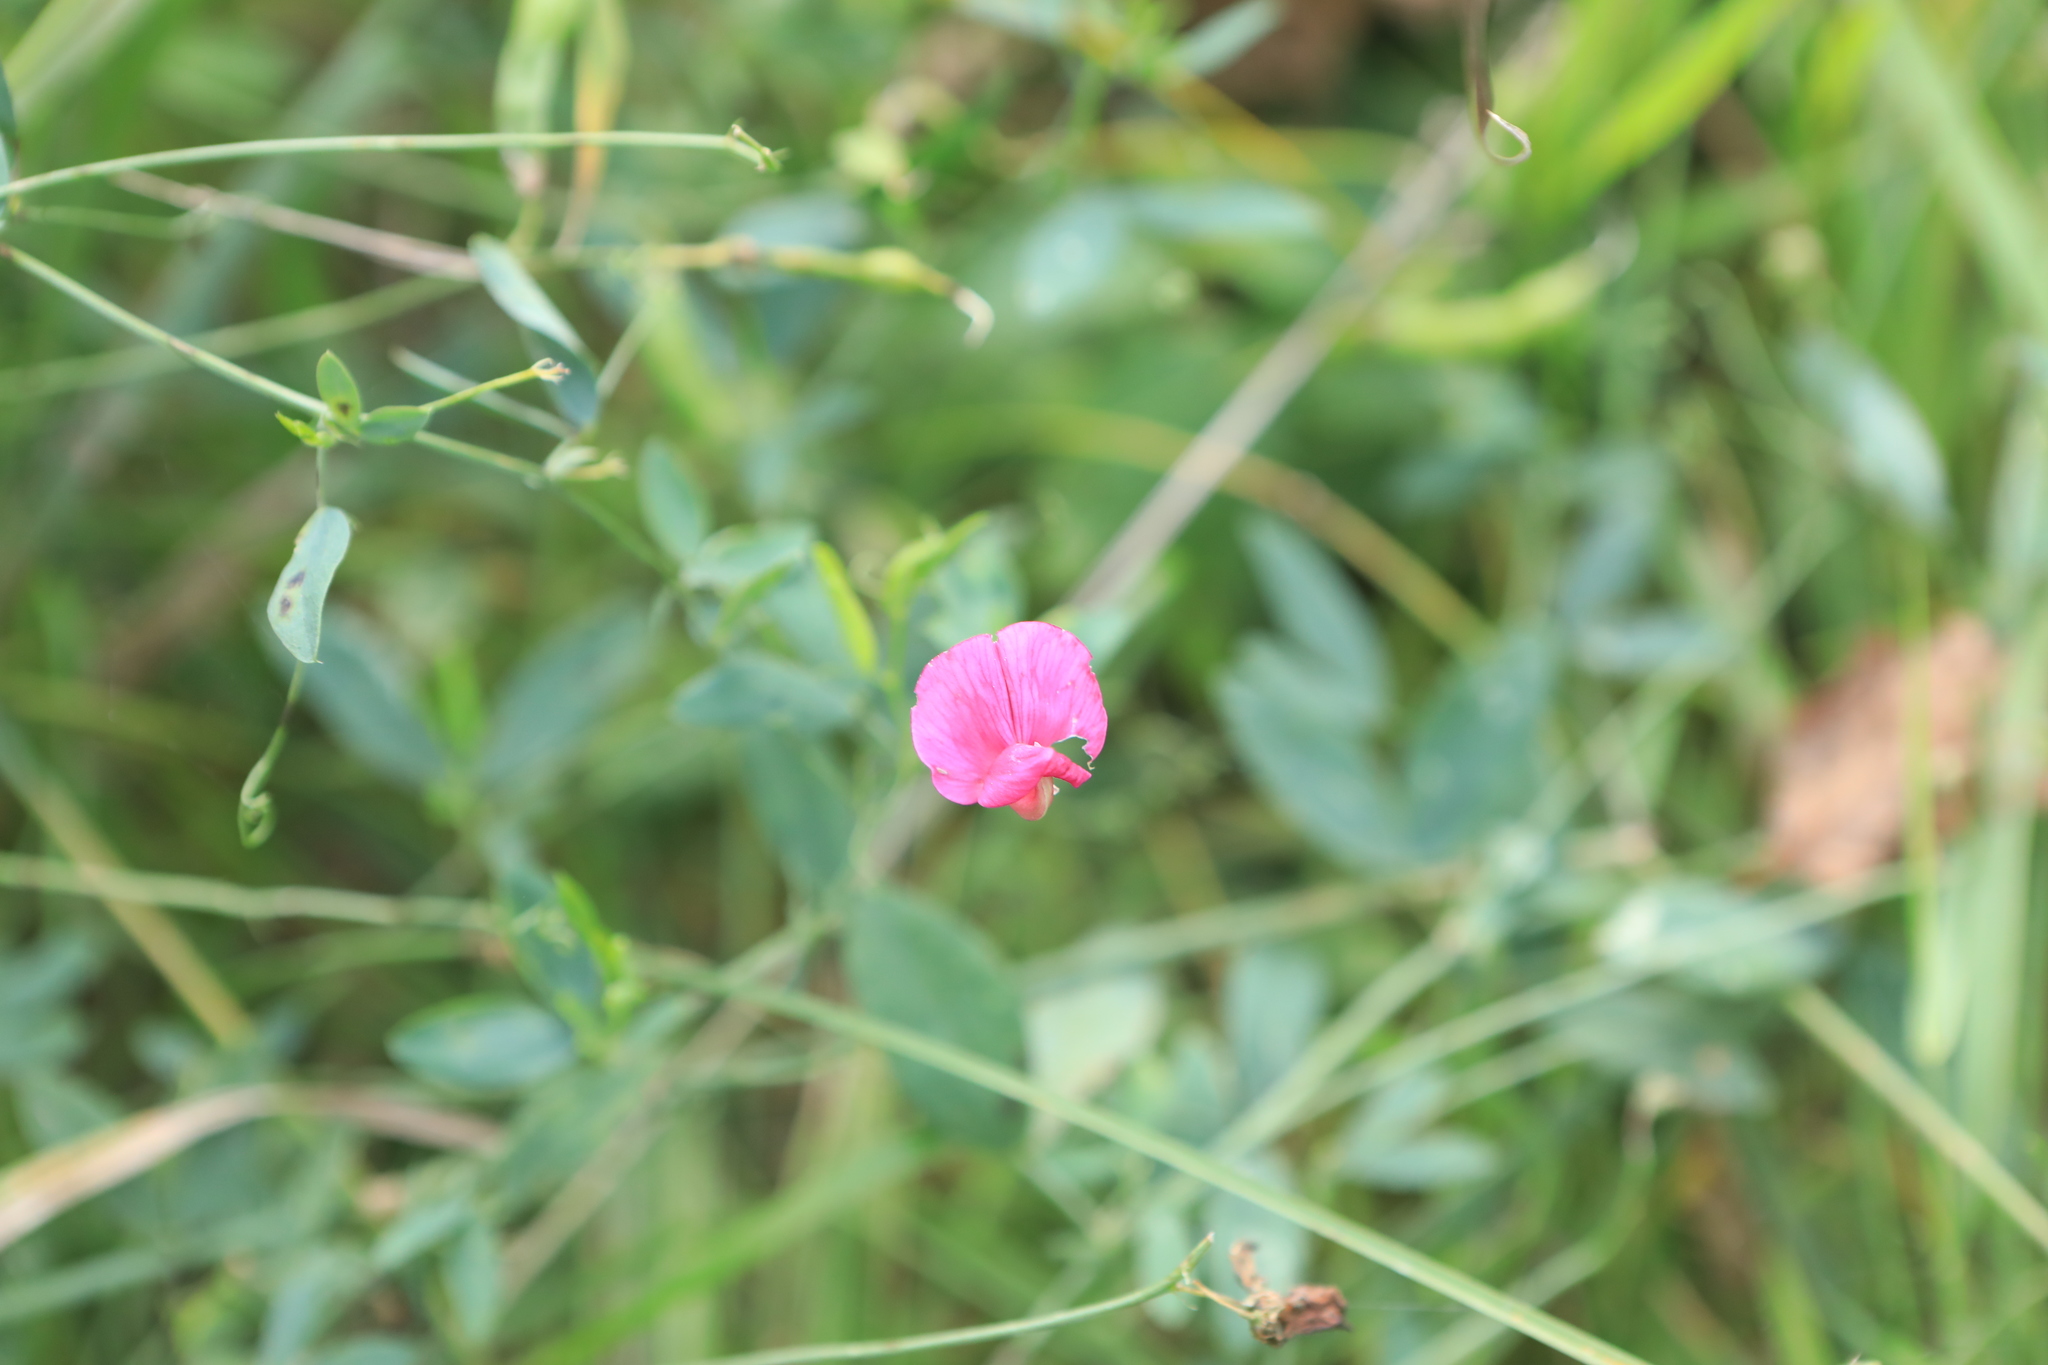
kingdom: Plantae
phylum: Tracheophyta
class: Magnoliopsida
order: Fabales
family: Fabaceae
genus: Lathyrus
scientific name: Lathyrus tuberosus
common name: Tuberous pea
